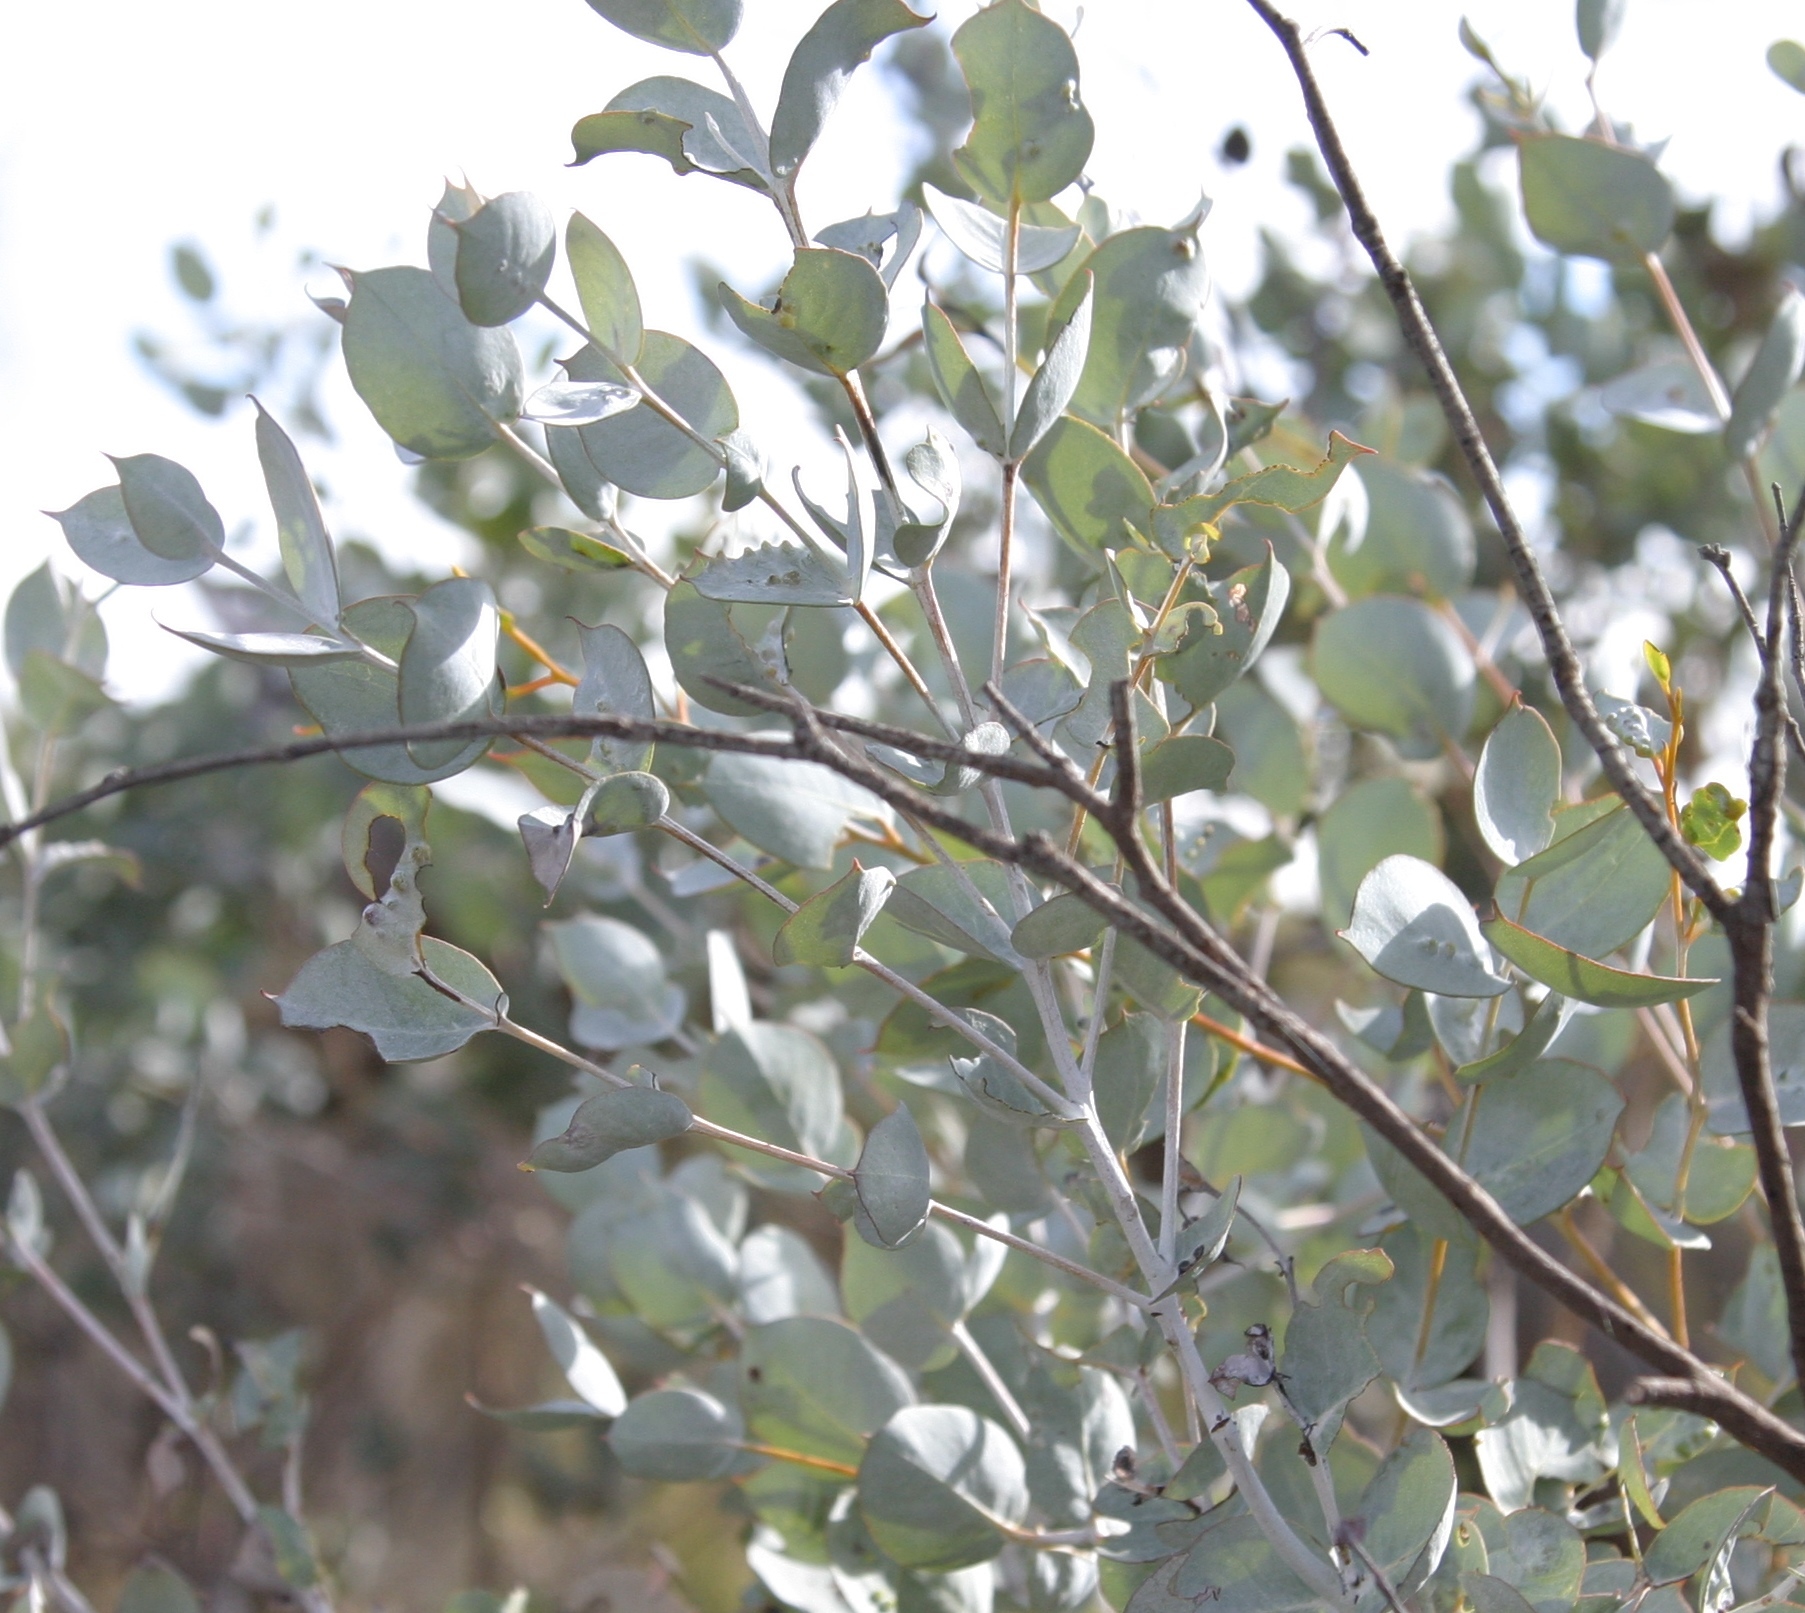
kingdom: Plantae
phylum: Tracheophyta
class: Magnoliopsida
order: Myrtales
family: Myrtaceae
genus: Eucalyptus
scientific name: Eucalyptus albida
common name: White-leaved mallee
